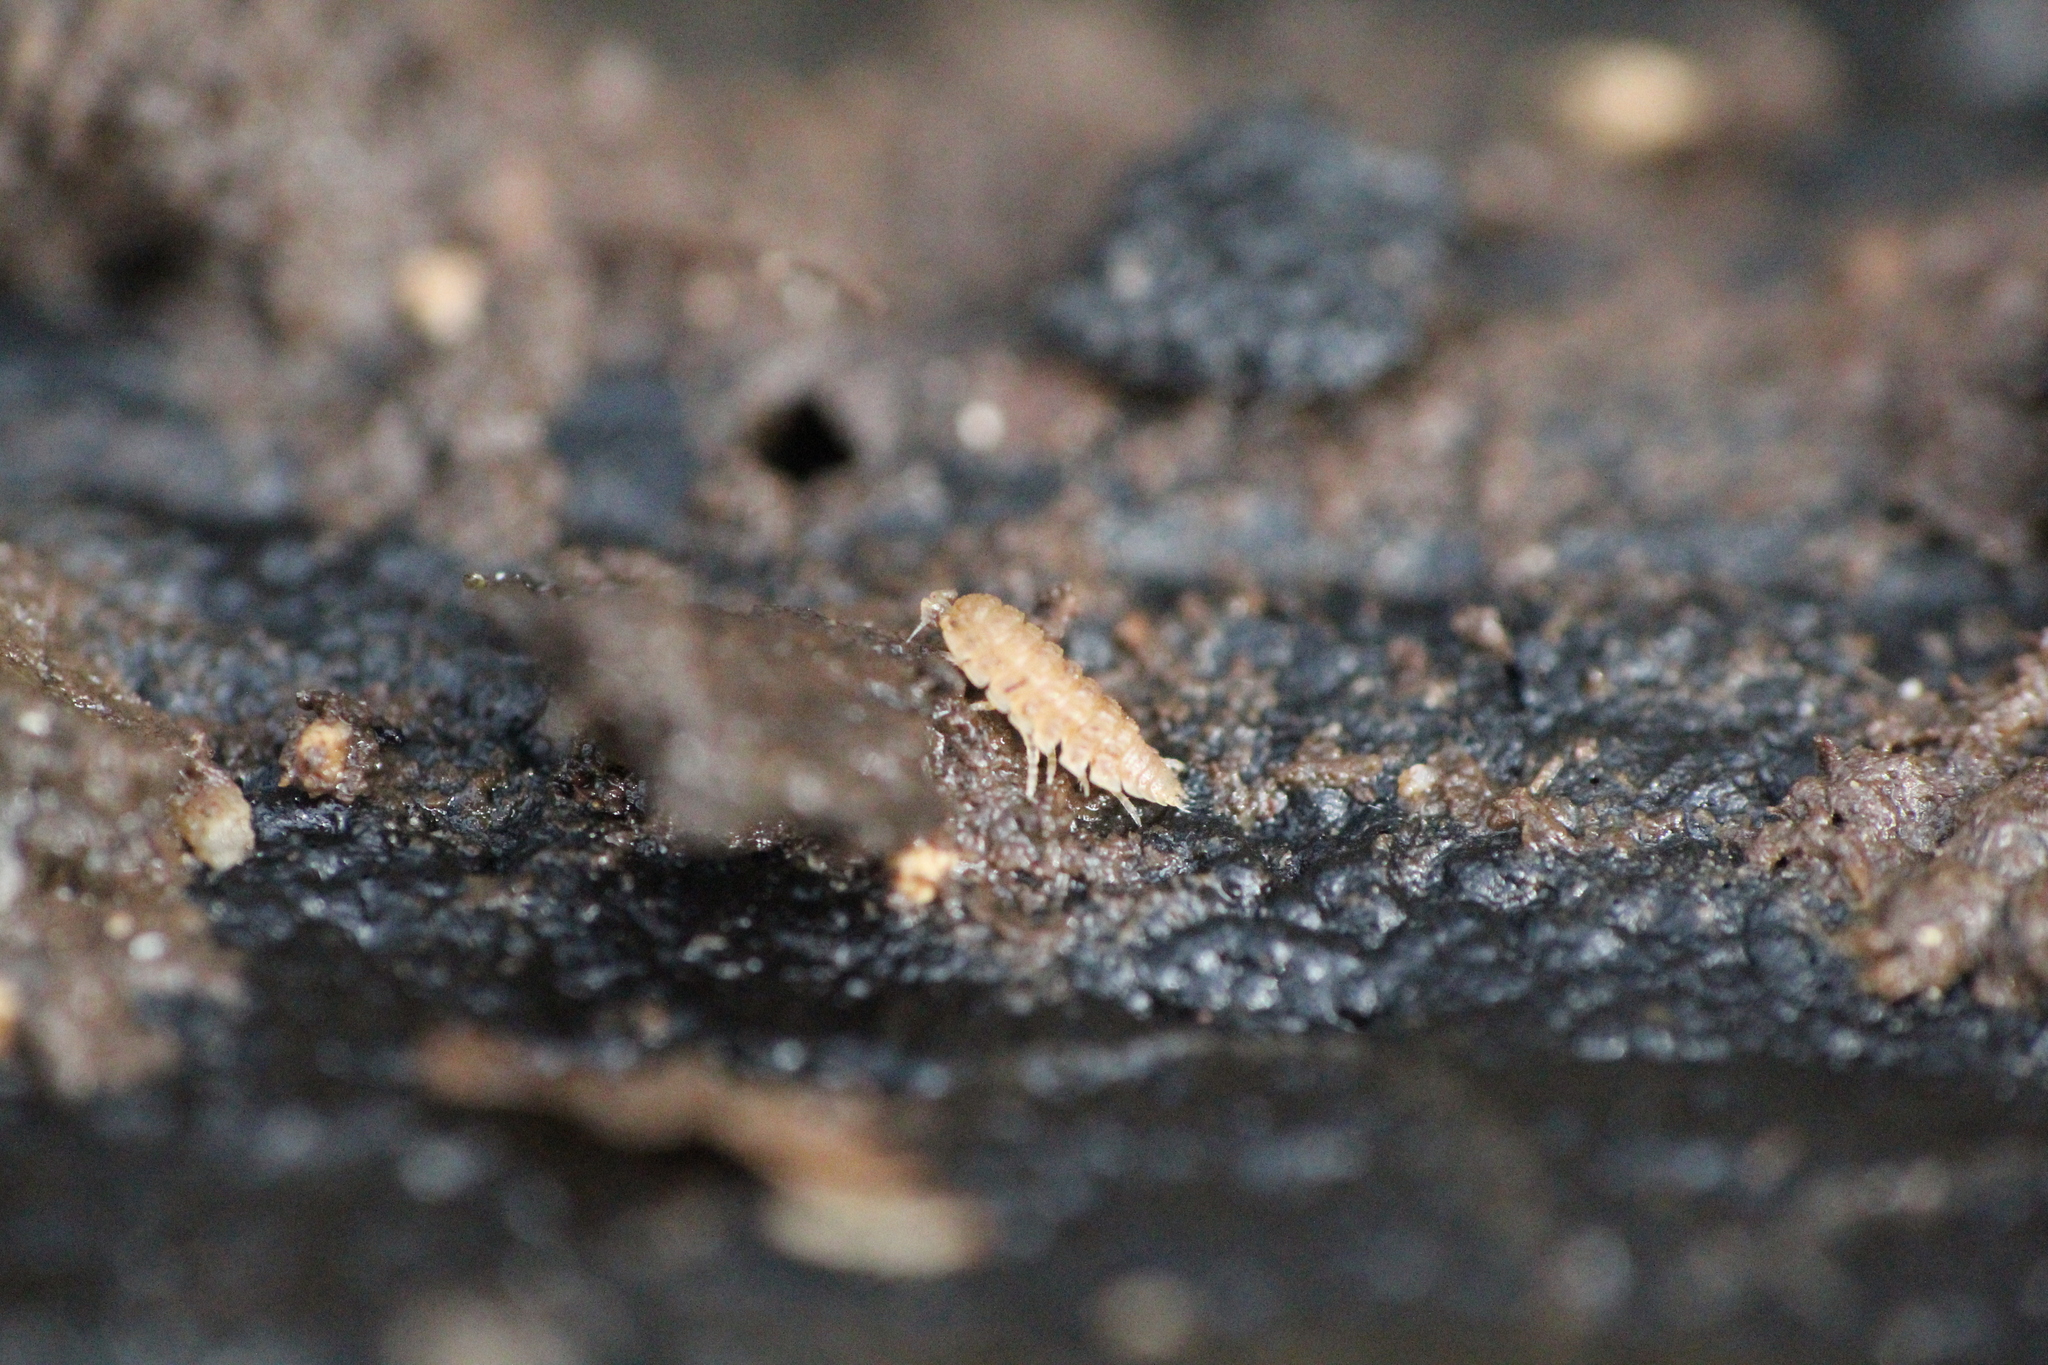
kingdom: Animalia
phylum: Arthropoda
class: Malacostraca
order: Isopoda
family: Trichoniscidae
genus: Haplophthalmus
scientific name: Haplophthalmus danicus
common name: Pillbug
